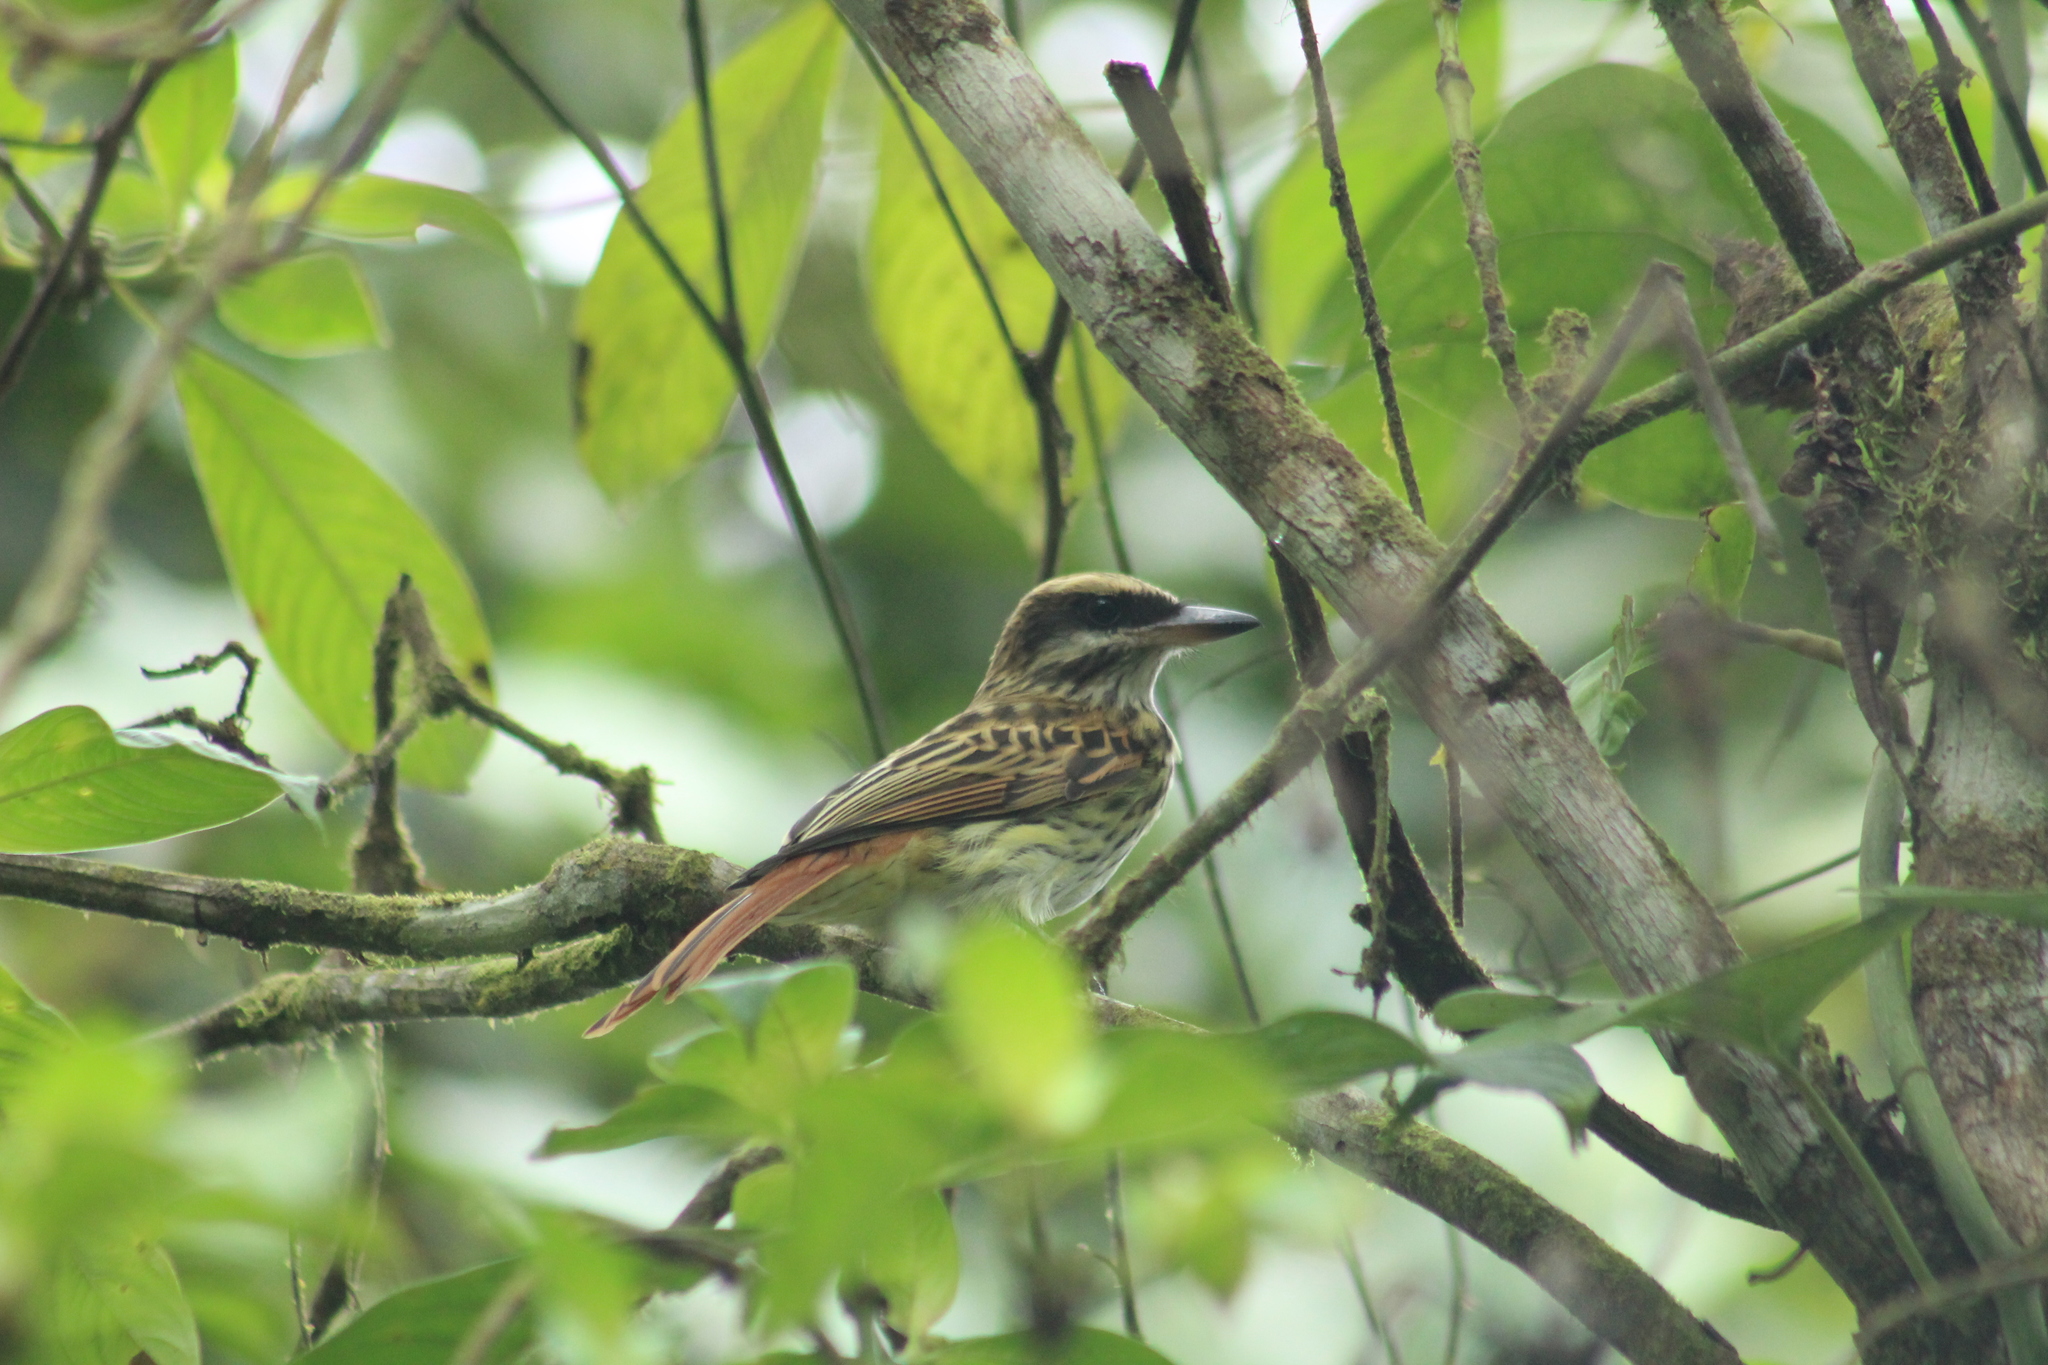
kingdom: Animalia
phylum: Chordata
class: Aves
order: Passeriformes
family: Tyrannidae
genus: Myiodynastes
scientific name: Myiodynastes maculatus
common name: Streaked flycatcher
